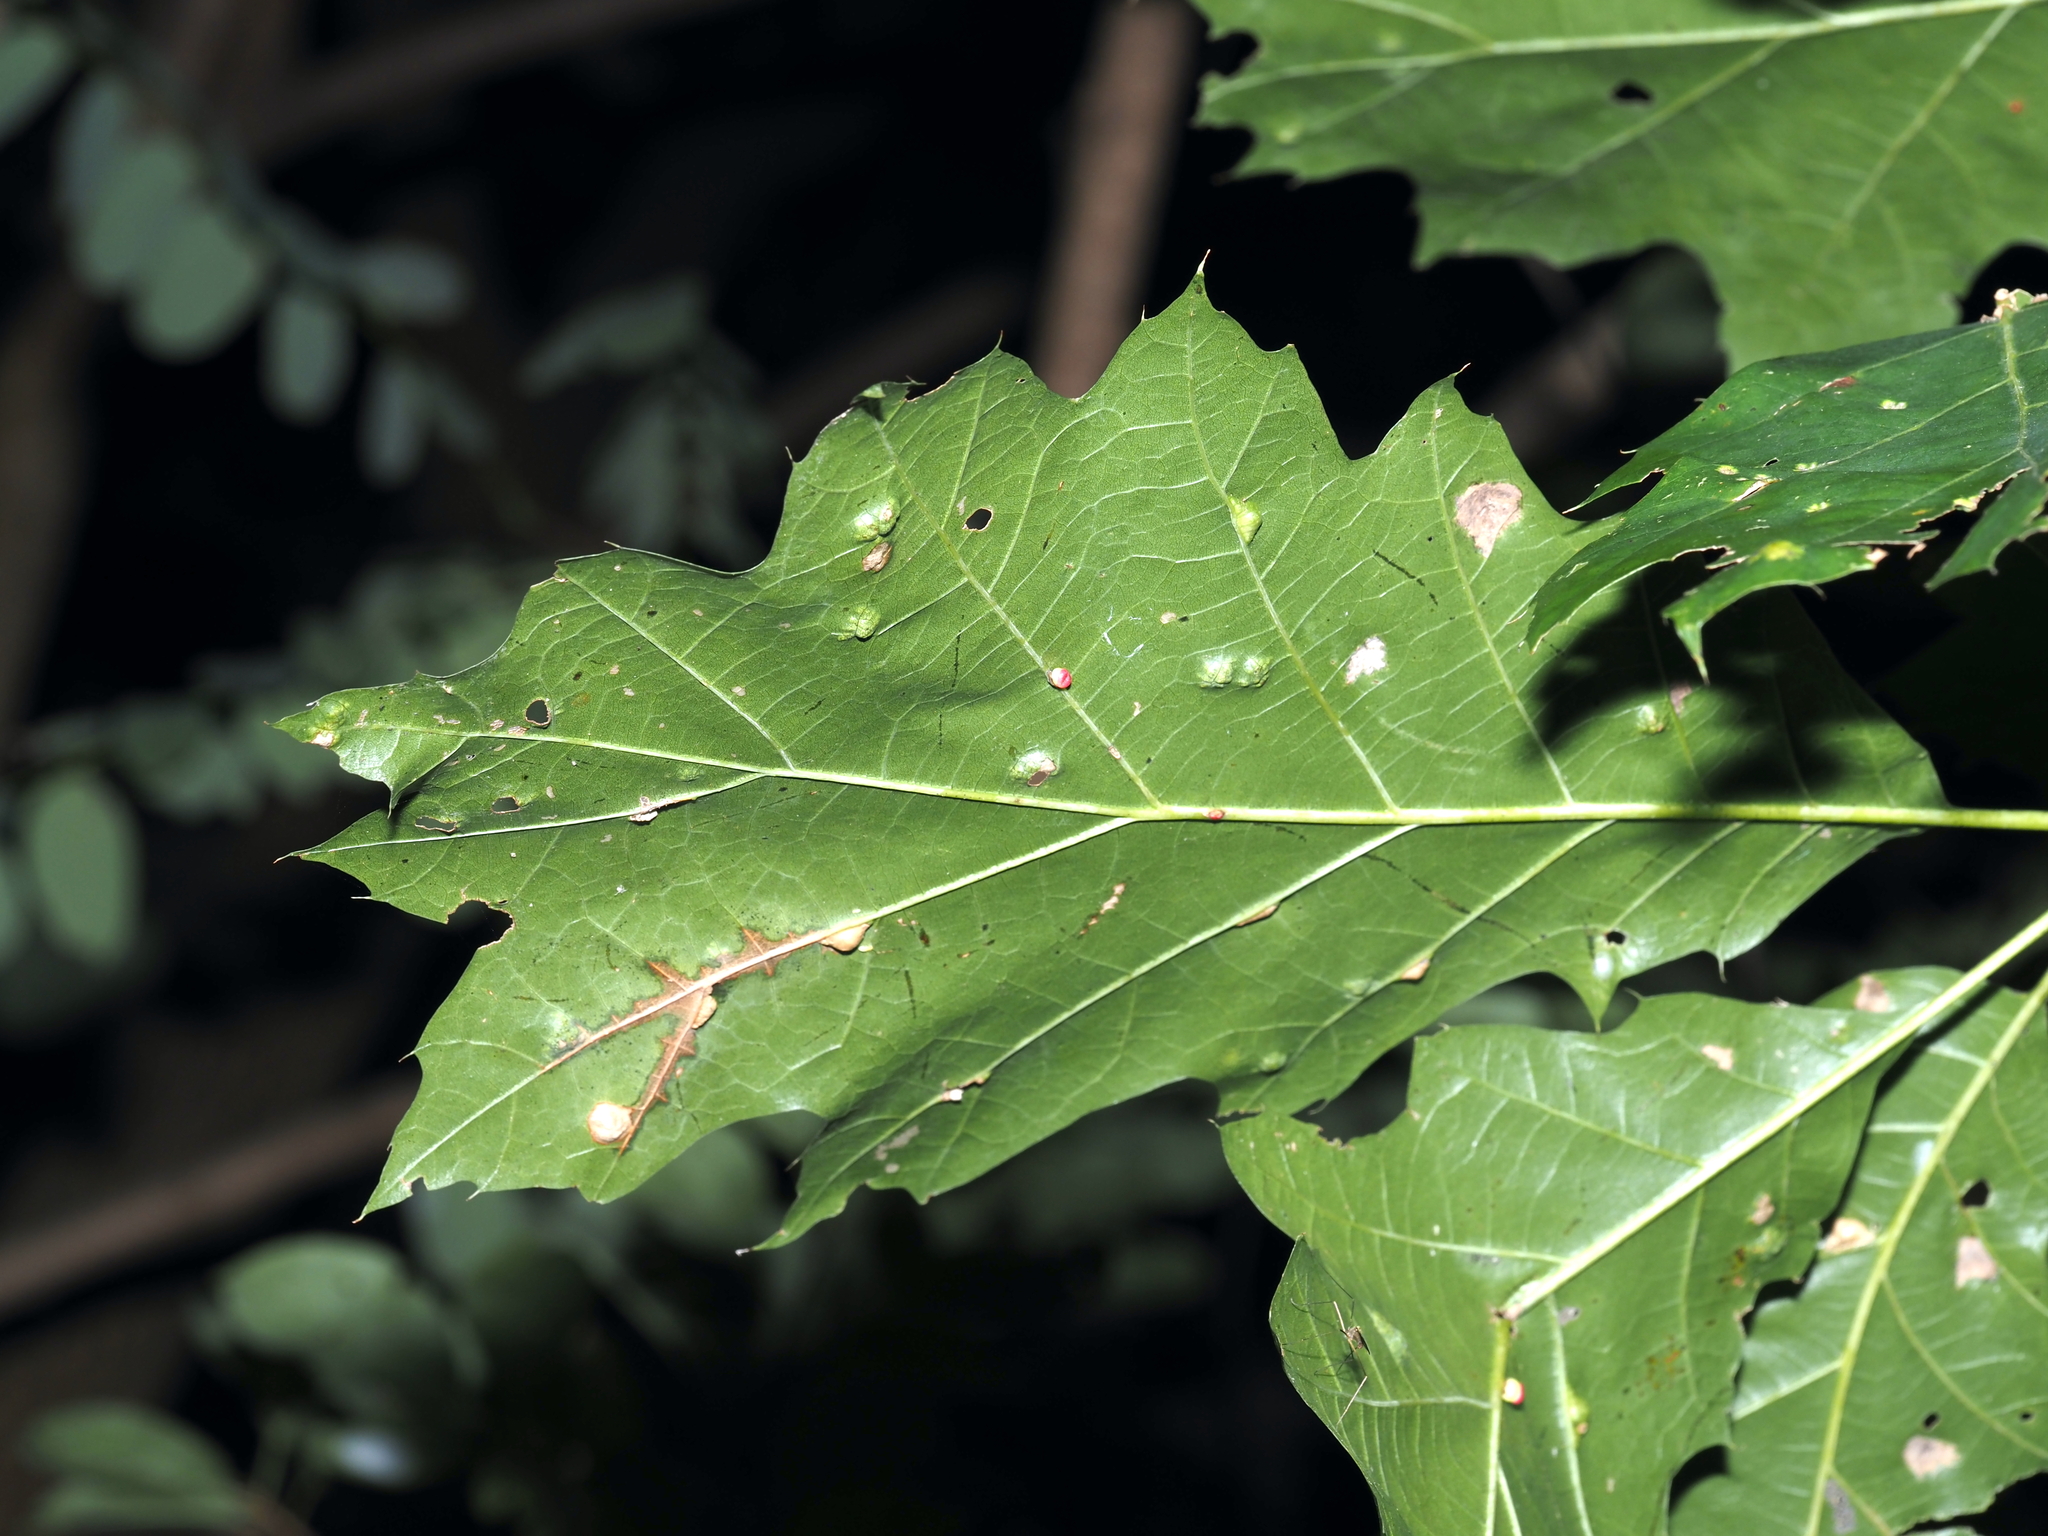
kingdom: Animalia
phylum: Arthropoda
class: Insecta
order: Hymenoptera
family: Cynipidae
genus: Kokkocynips
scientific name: Kokkocynips rileyi
